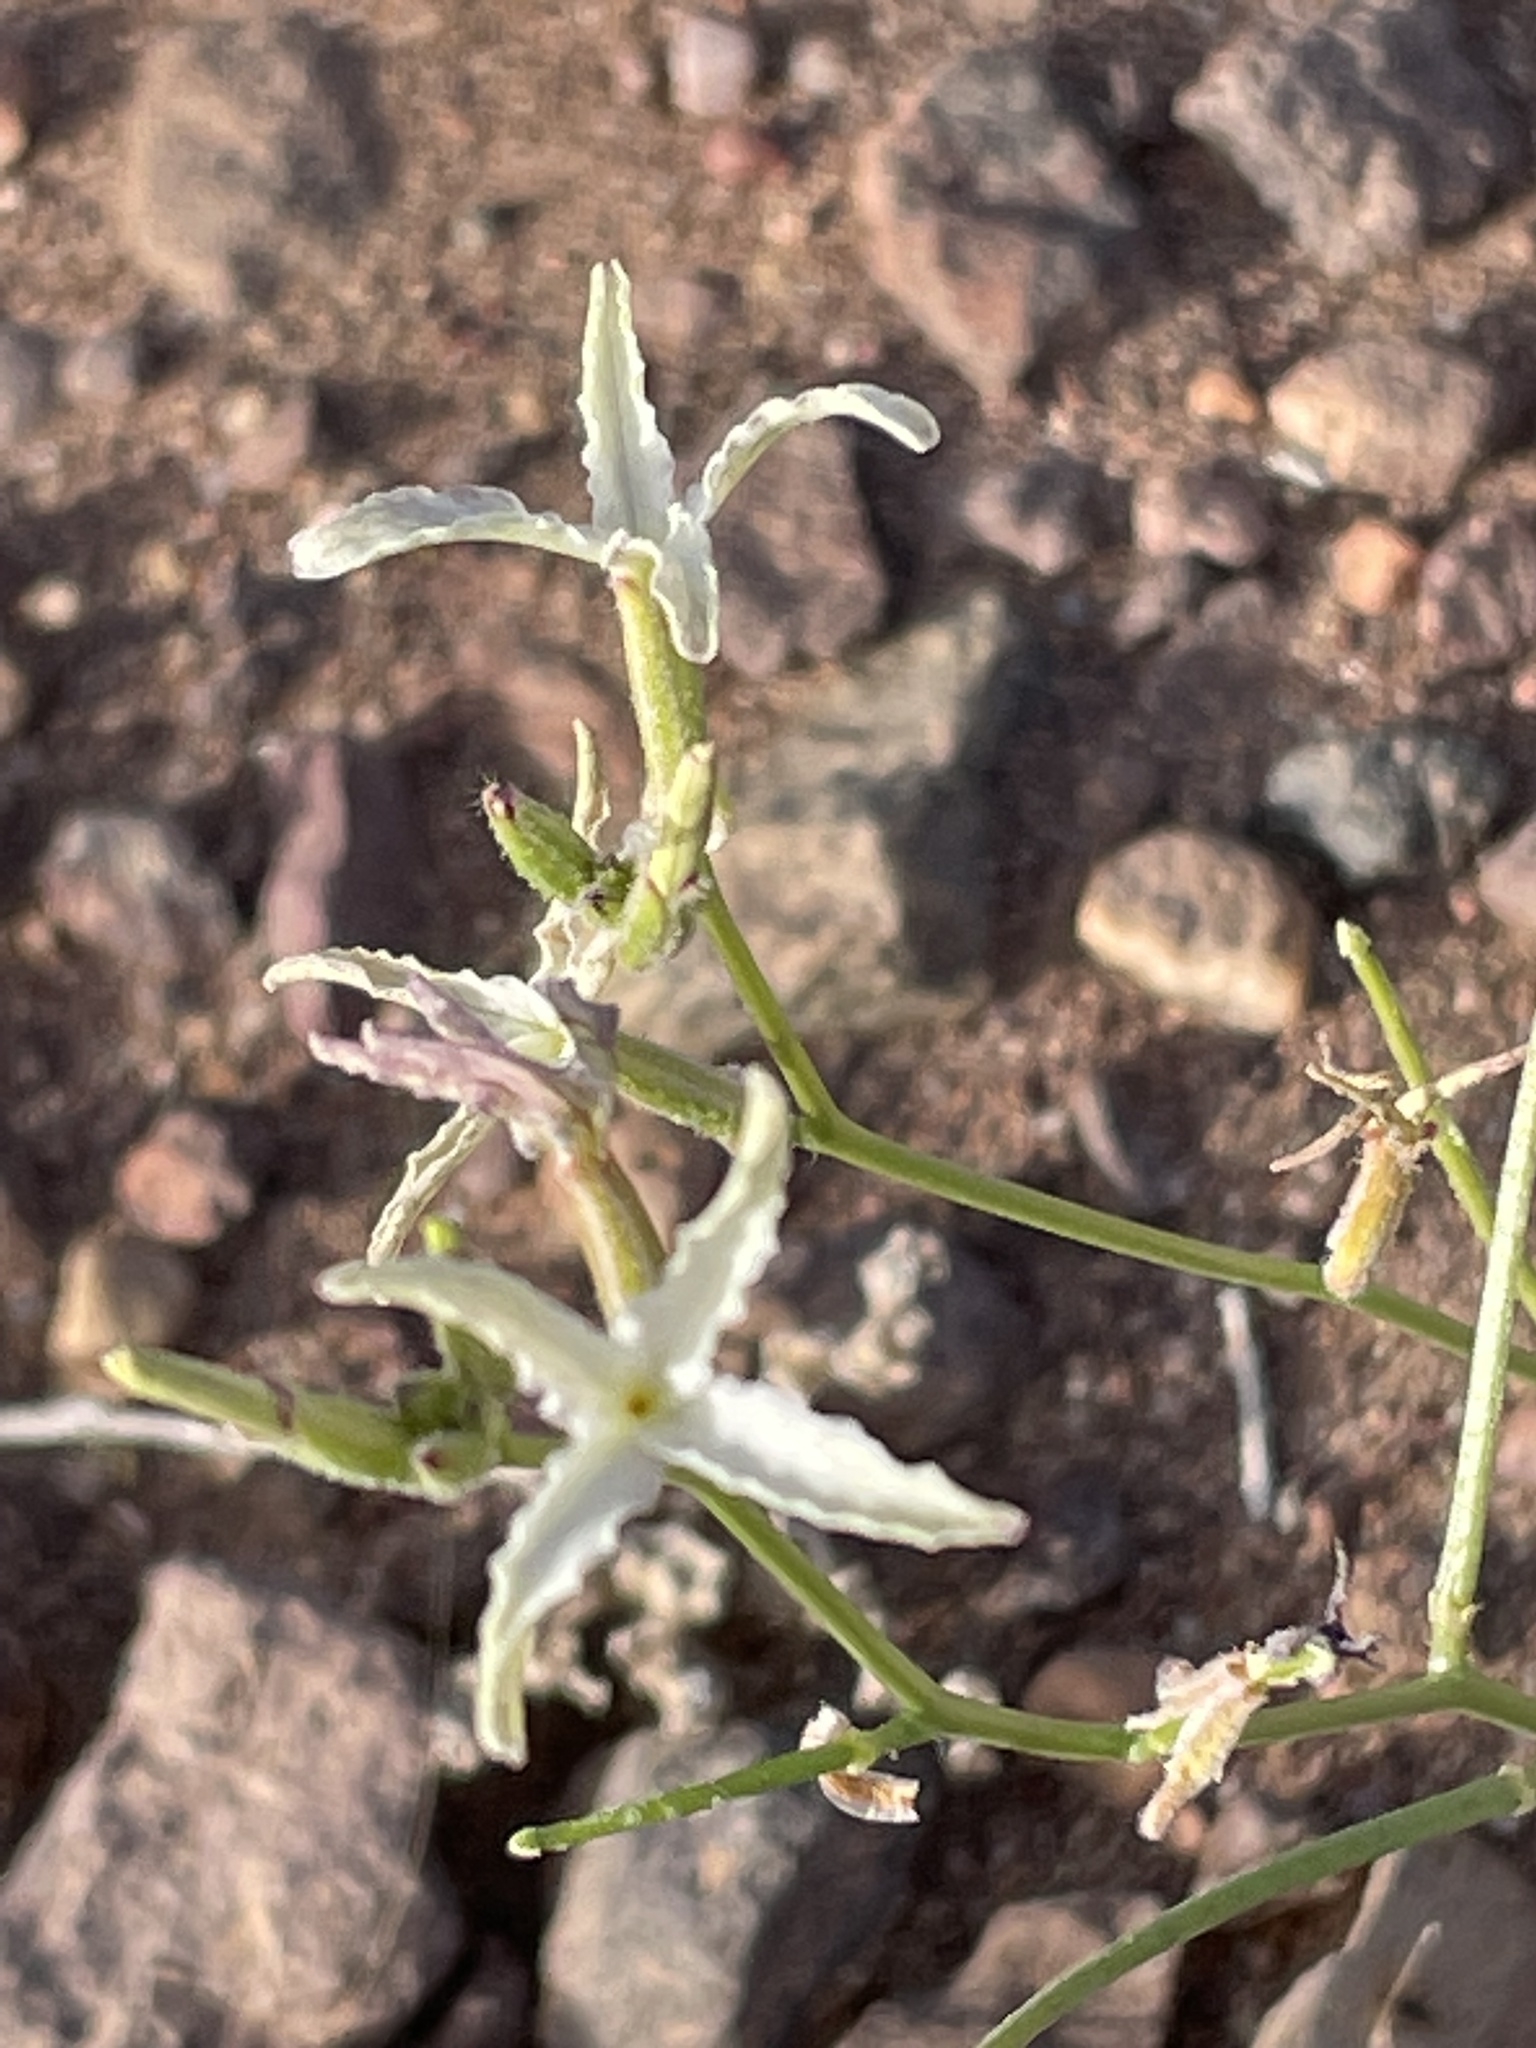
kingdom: Plantae
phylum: Tracheophyta
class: Magnoliopsida
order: Brassicales
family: Brassicaceae
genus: Matthiola
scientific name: Matthiola maroccana
